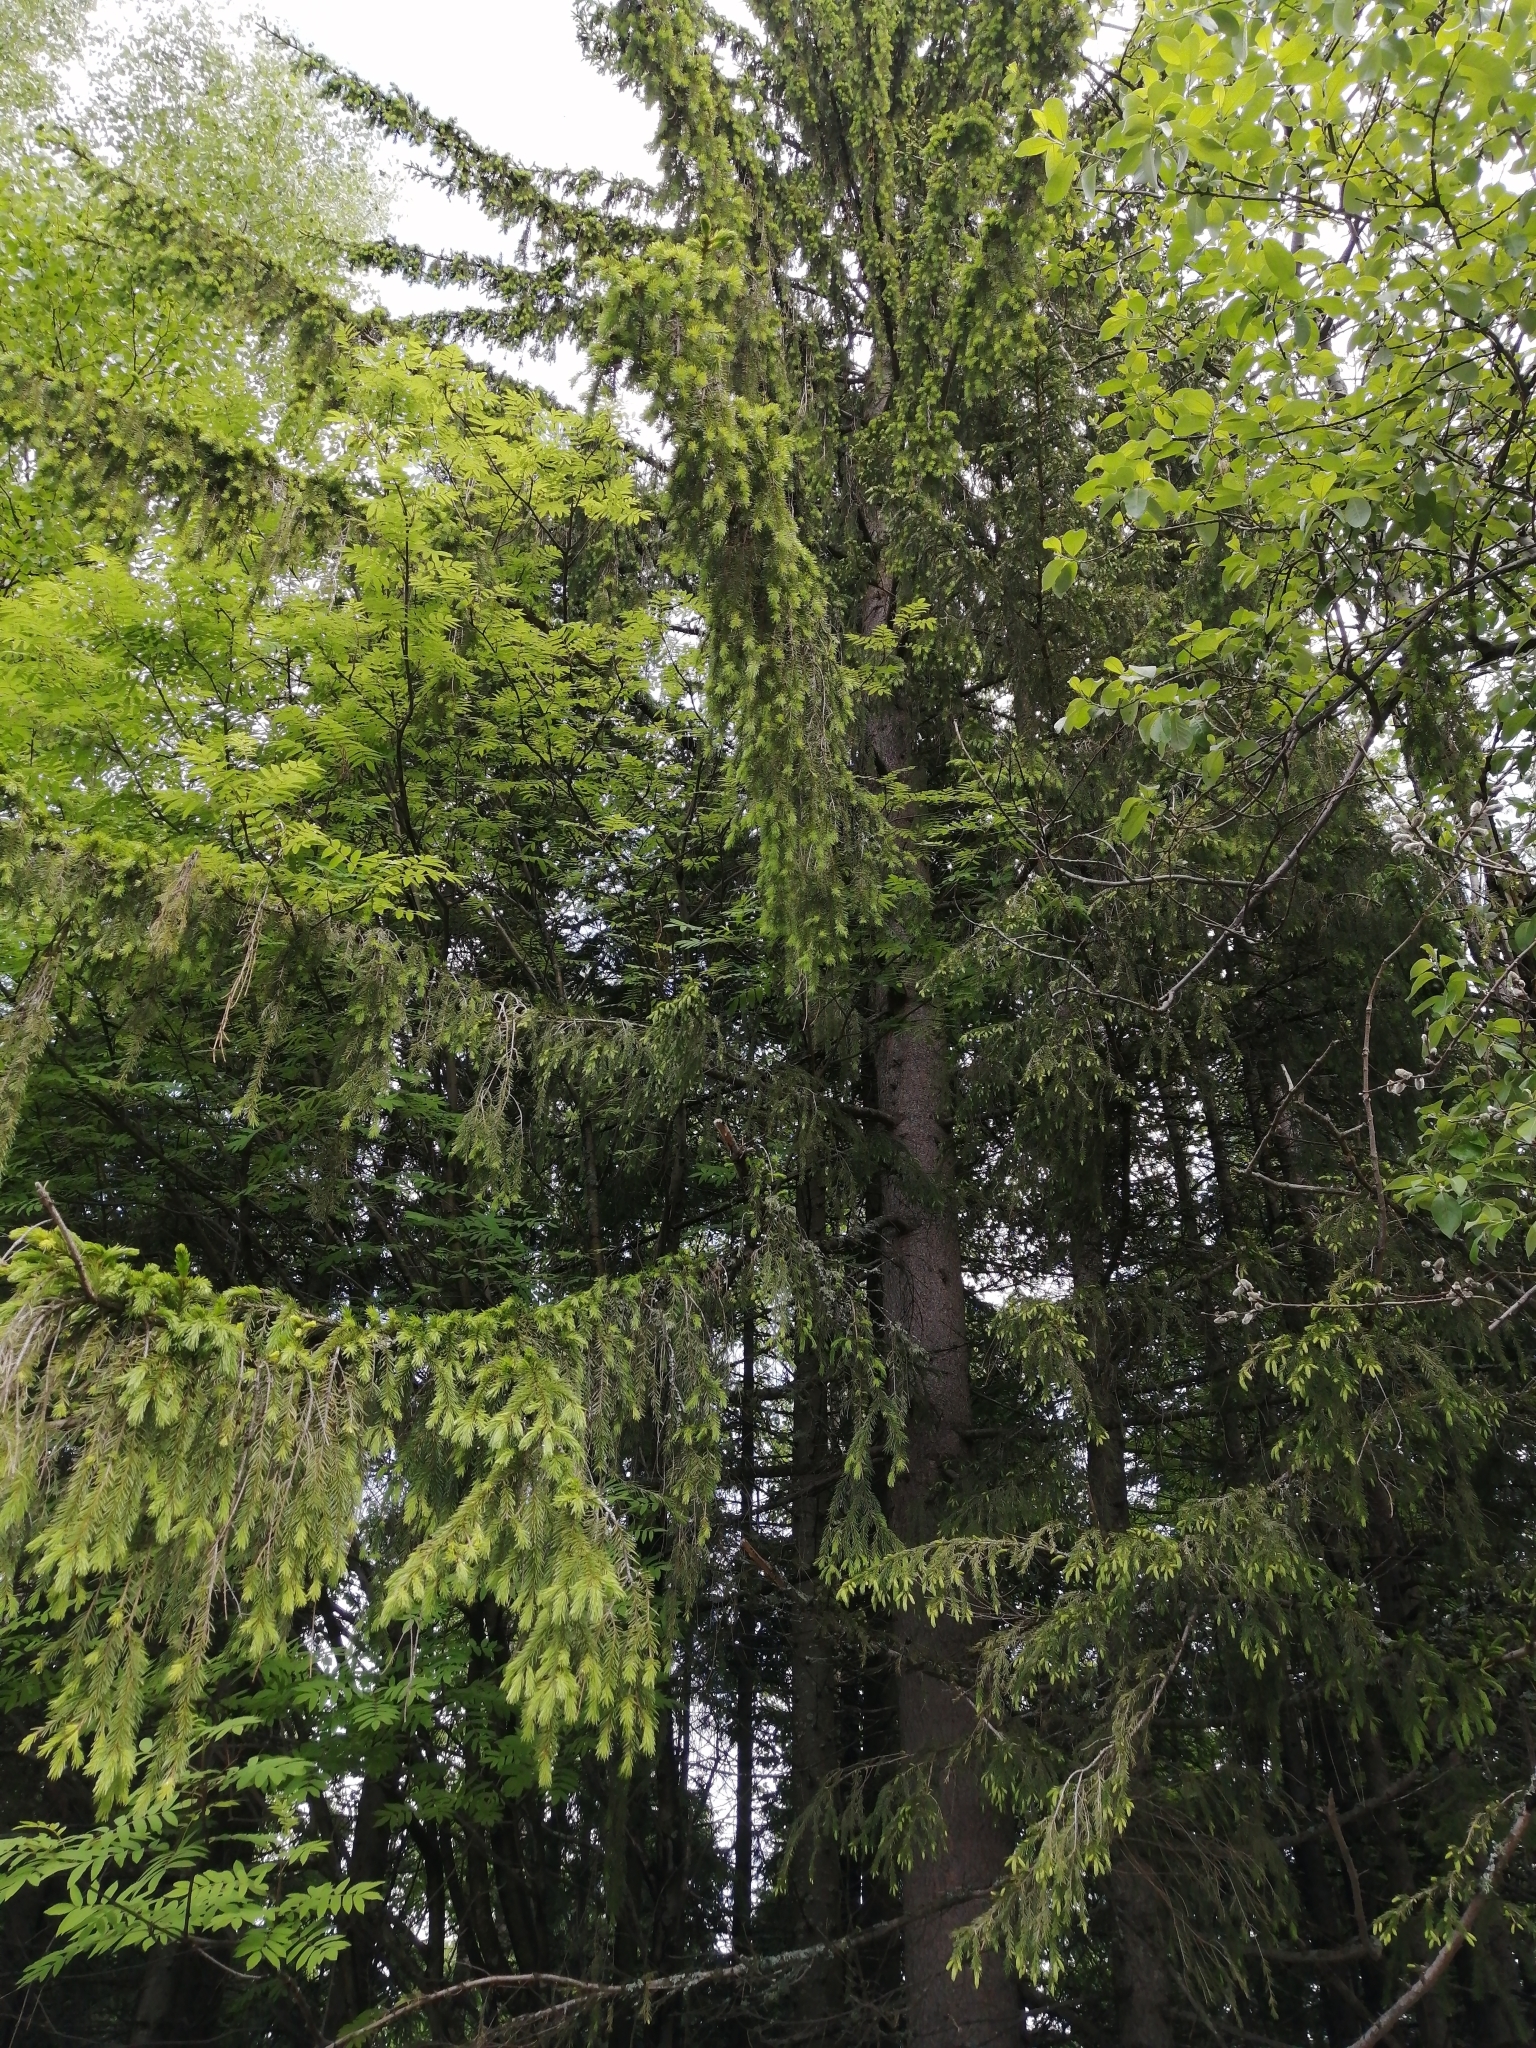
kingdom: Plantae
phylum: Tracheophyta
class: Pinopsida
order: Pinales
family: Pinaceae
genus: Picea
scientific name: Picea obovata
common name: Siberian spruce
